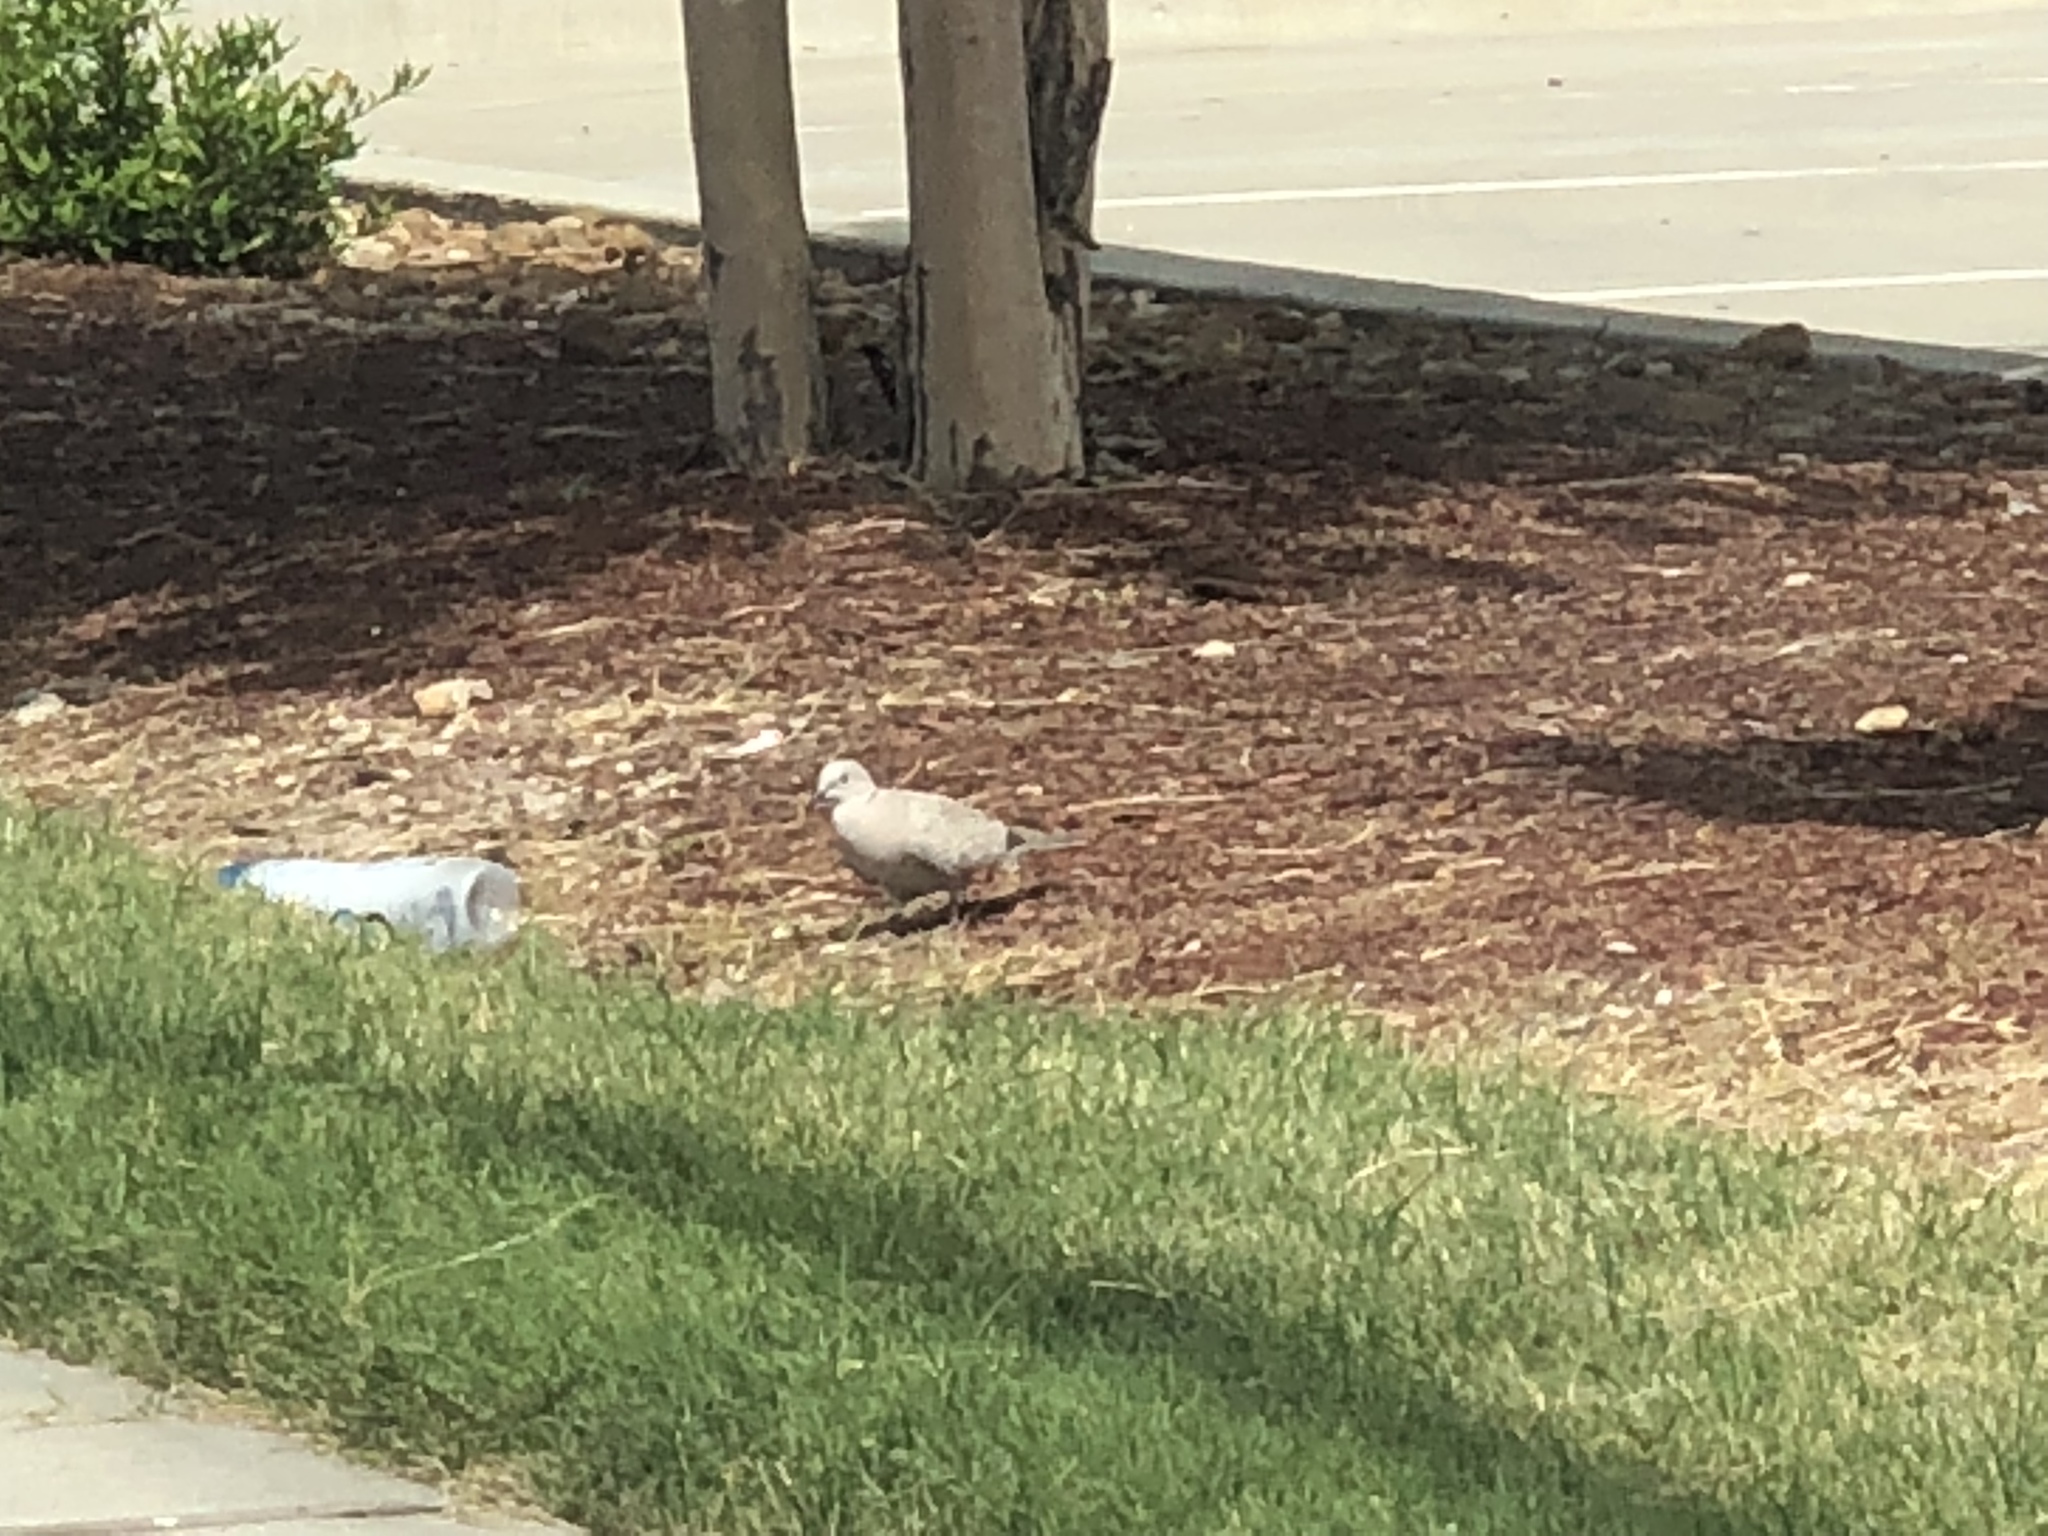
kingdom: Animalia
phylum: Chordata
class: Aves
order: Columbiformes
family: Columbidae
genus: Streptopelia
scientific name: Streptopelia decaocto
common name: Eurasian collared dove
